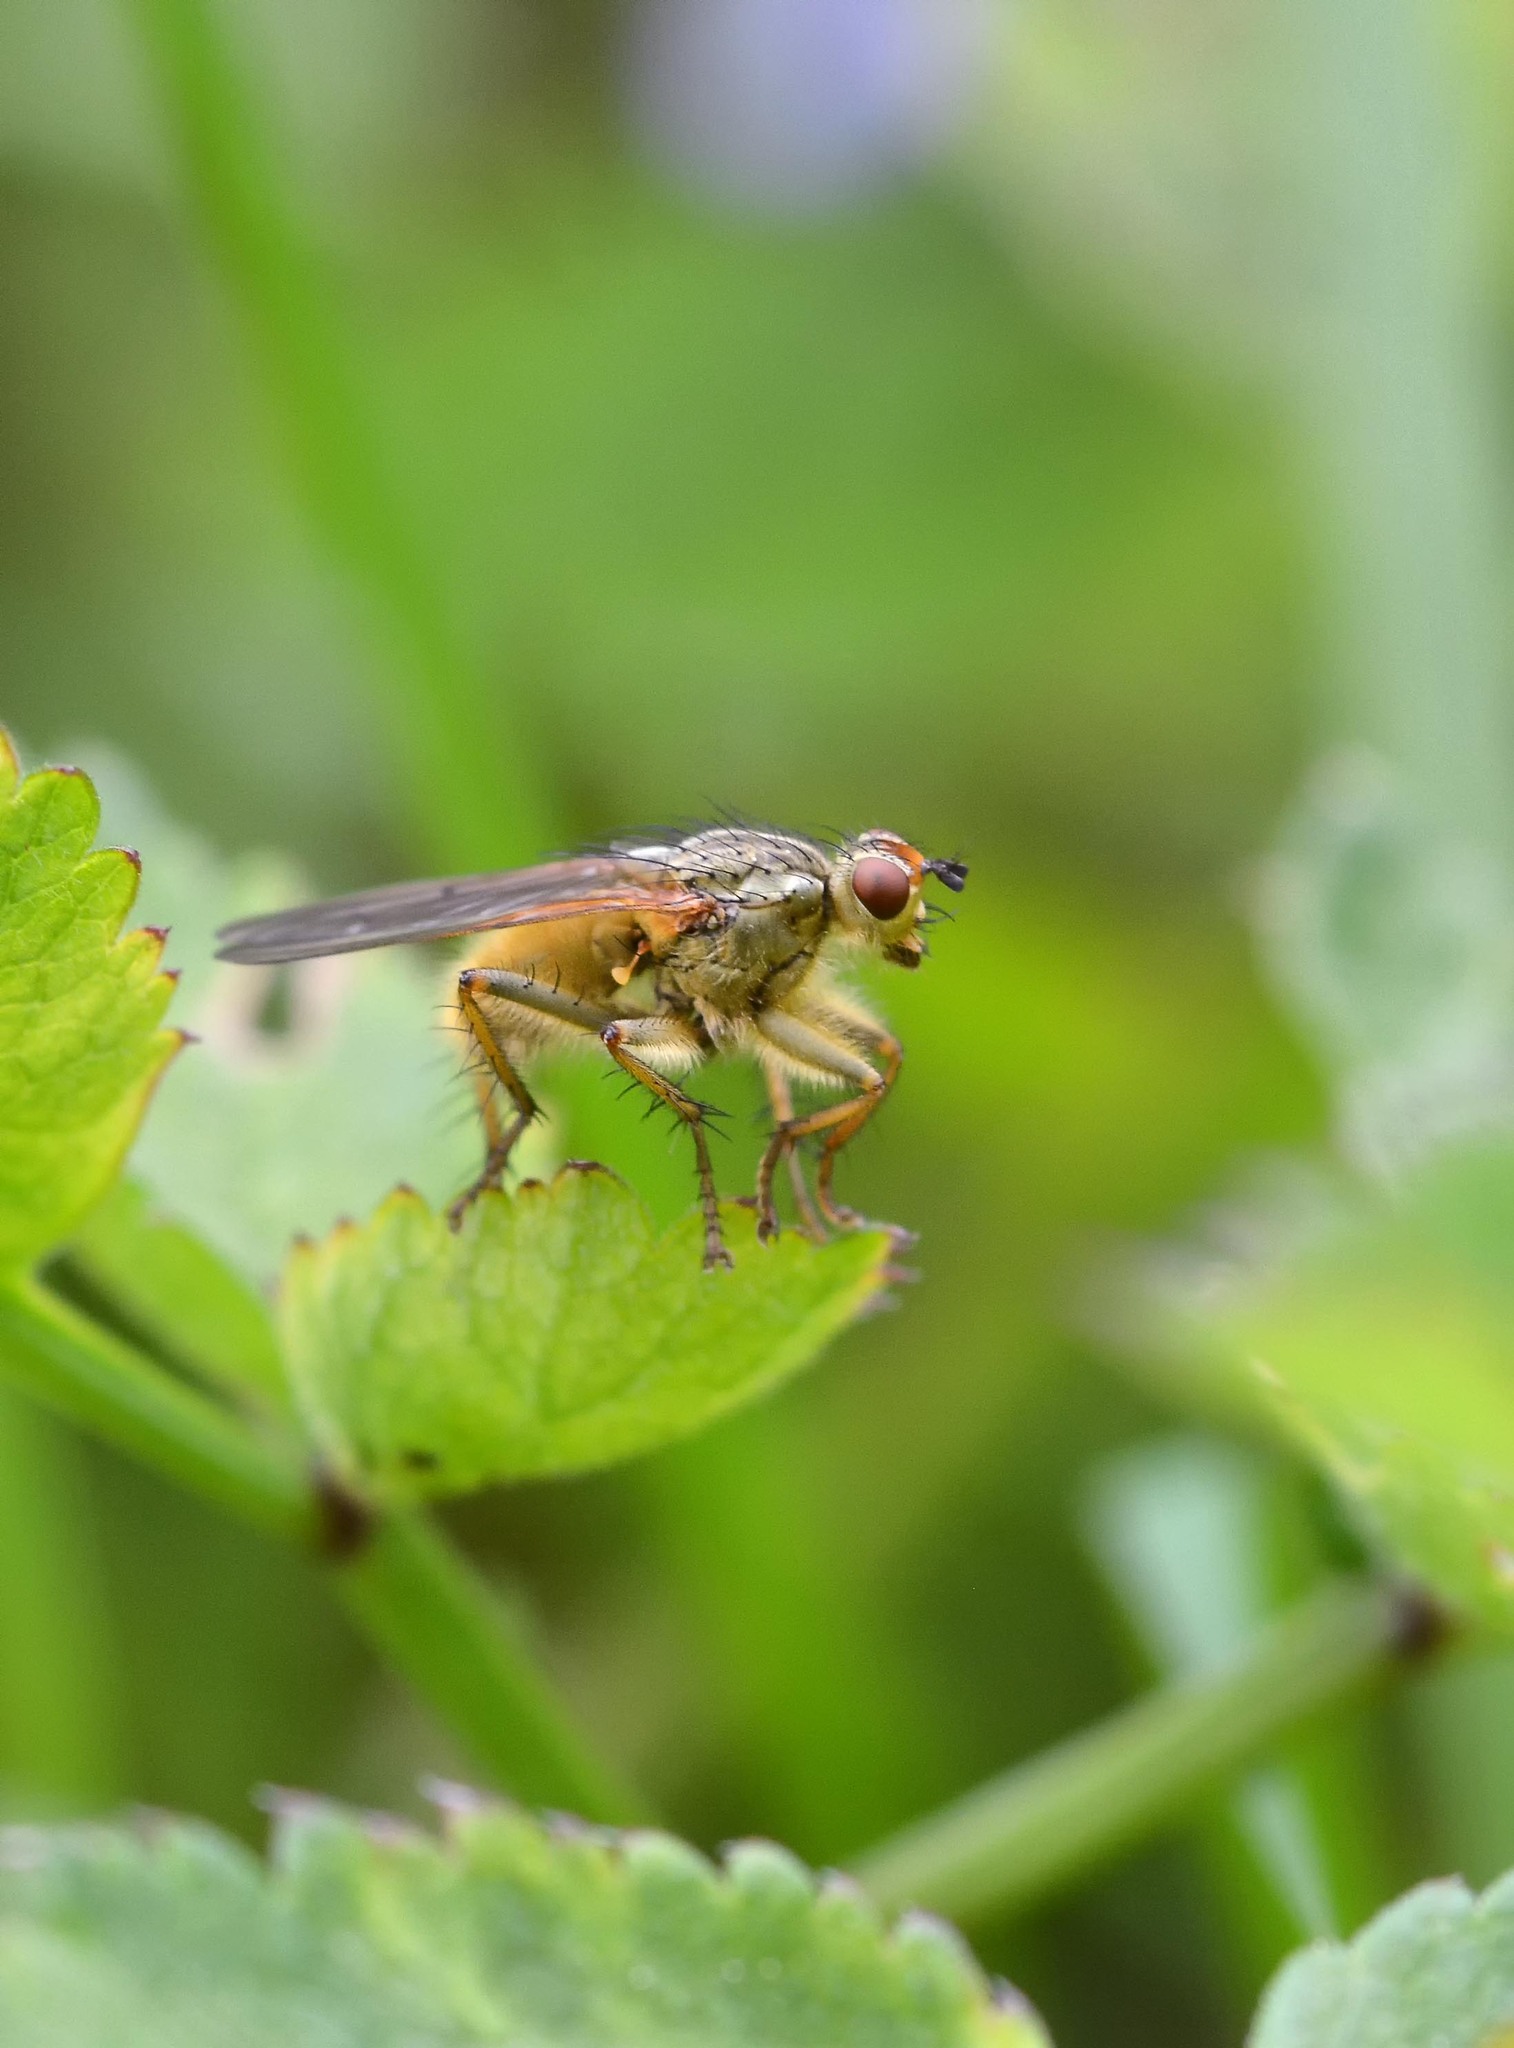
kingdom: Animalia
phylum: Arthropoda
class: Insecta
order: Diptera
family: Scathophagidae
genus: Scathophaga
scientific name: Scathophaga stercoraria
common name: Yellow dung fly
